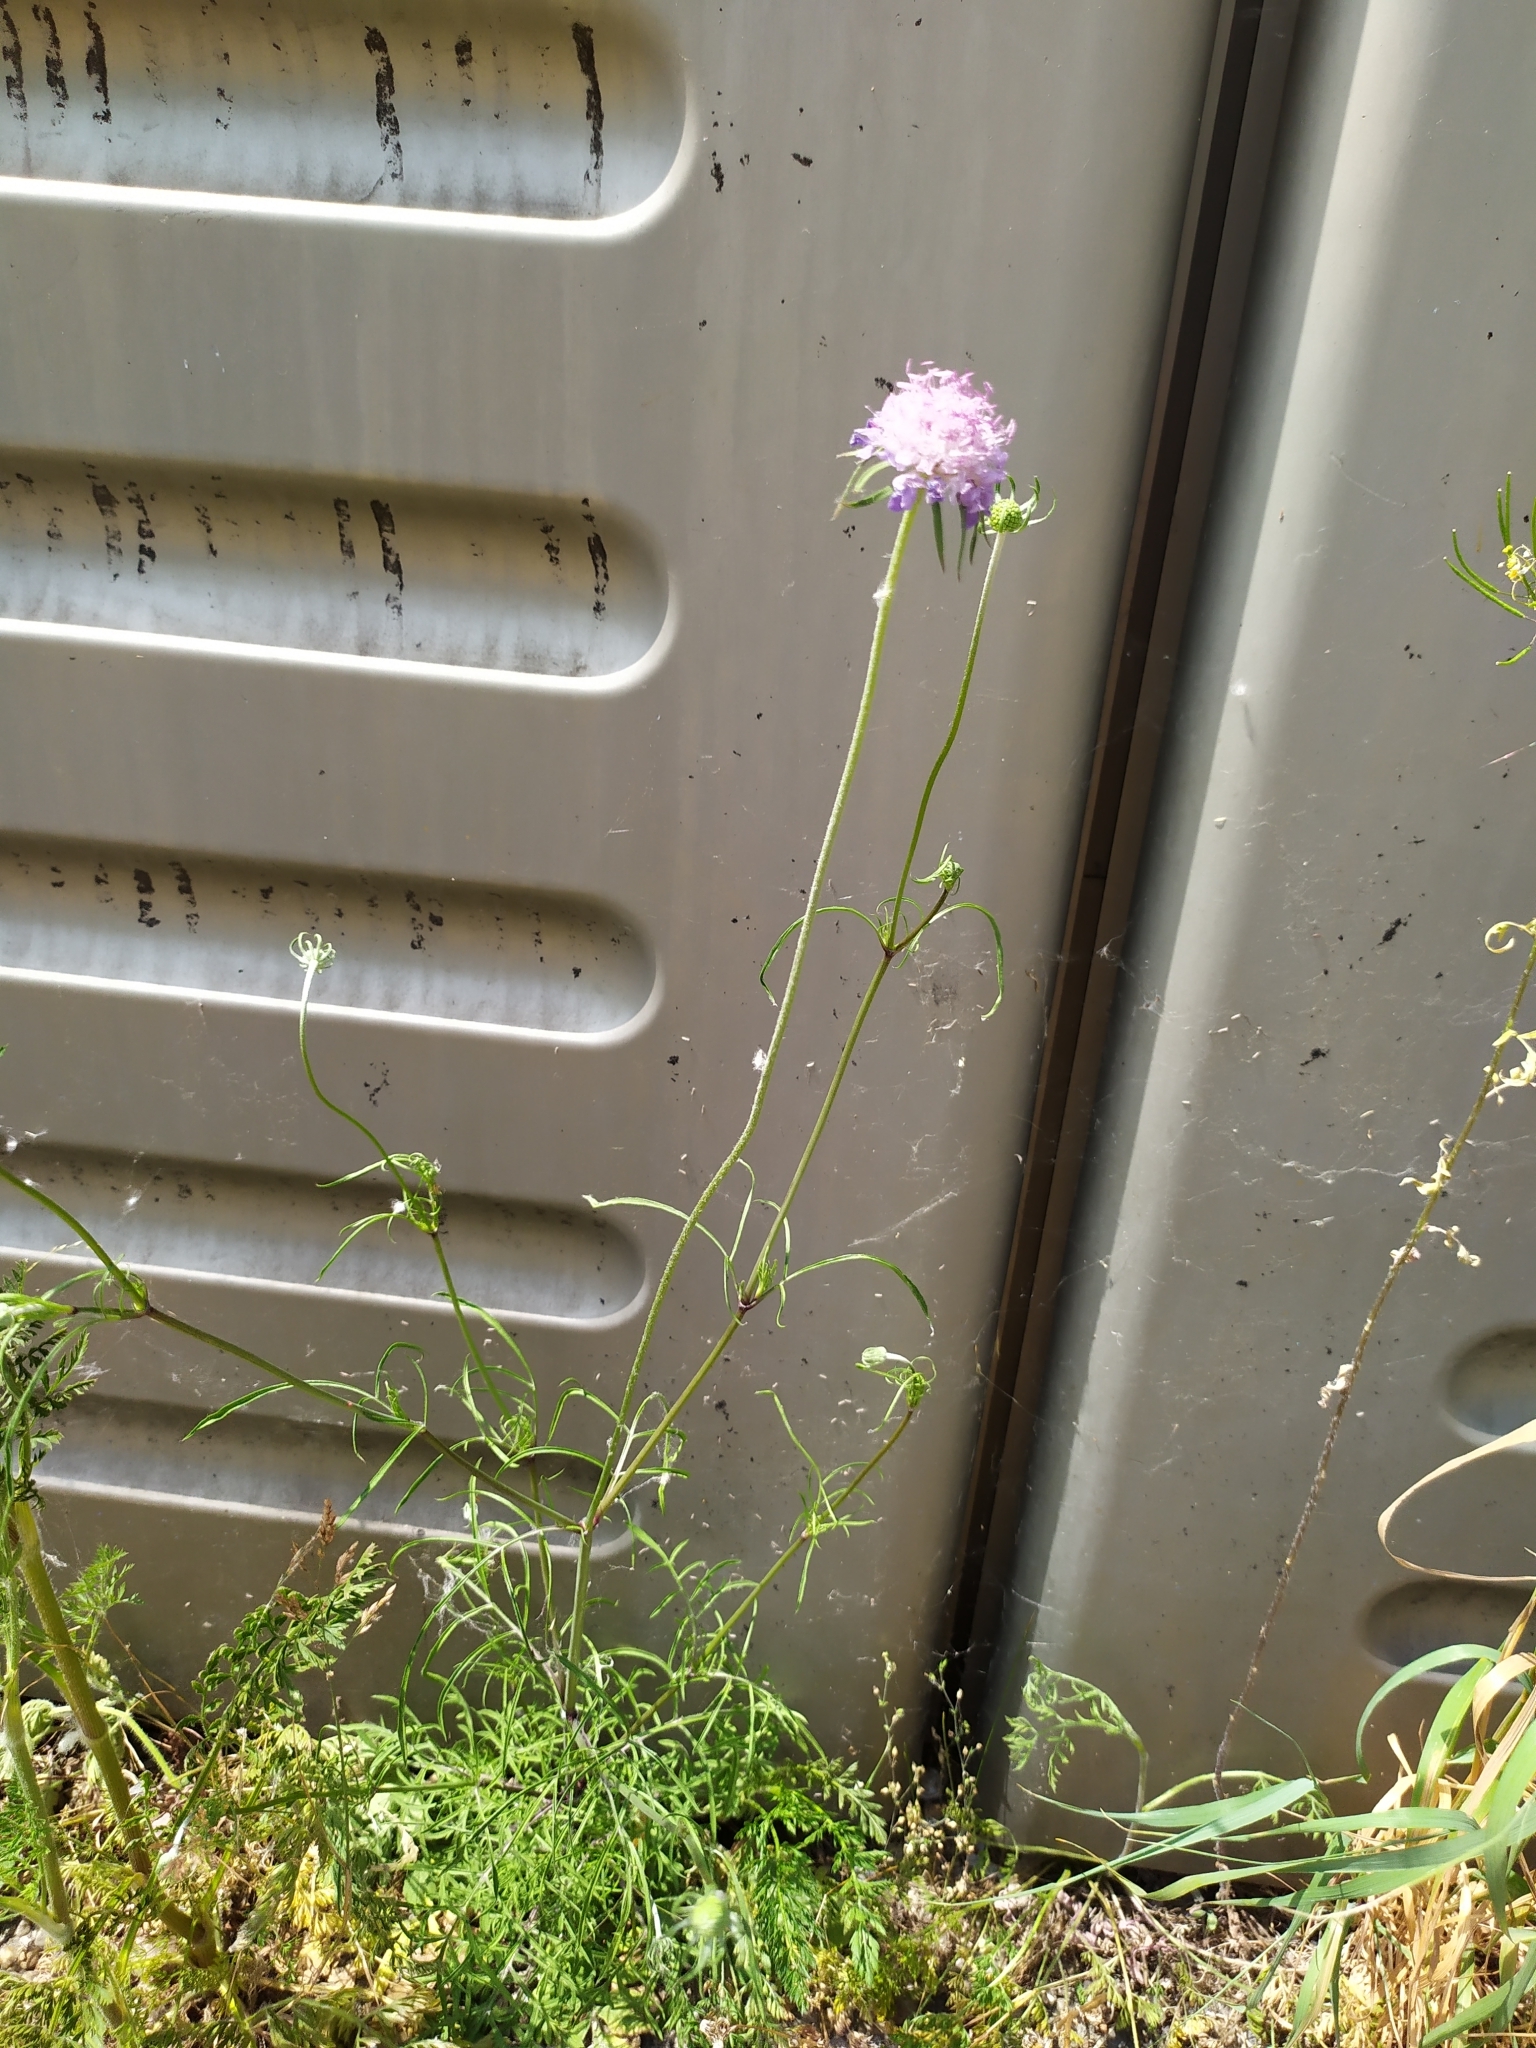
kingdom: Plantae
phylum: Tracheophyta
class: Magnoliopsida
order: Dipsacales
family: Caprifoliaceae
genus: Scabiosa
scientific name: Scabiosa triandra
